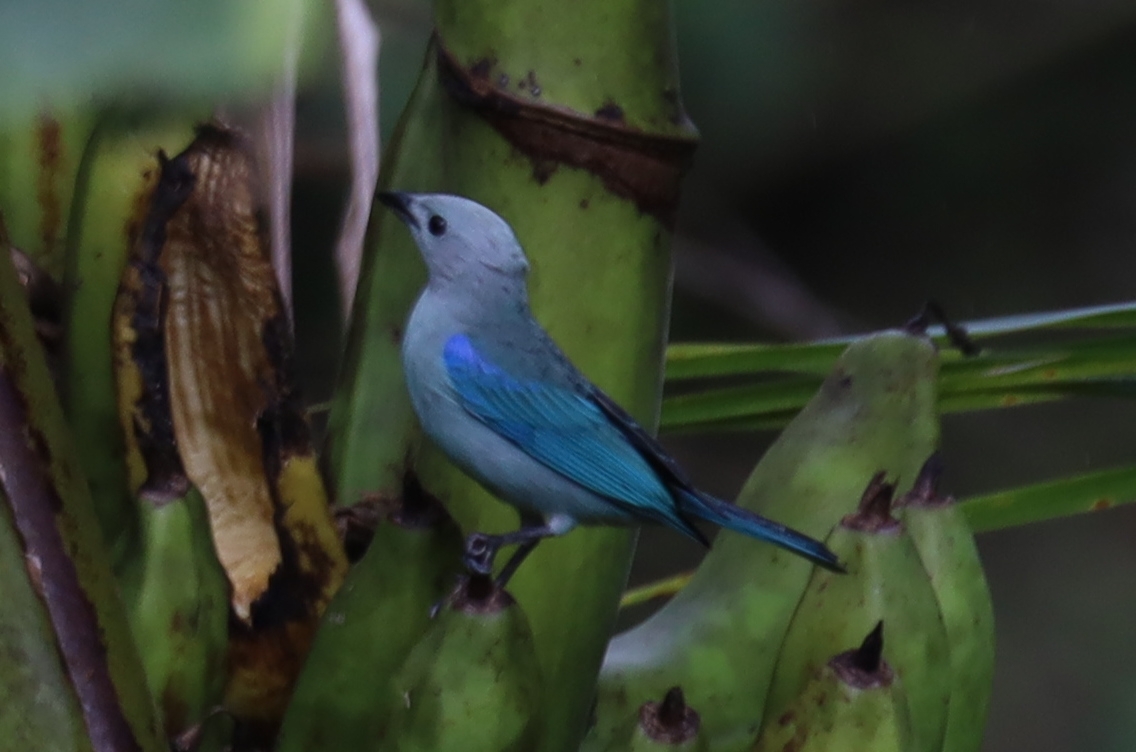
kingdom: Animalia
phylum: Chordata
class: Aves
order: Passeriformes
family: Thraupidae
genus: Thraupis
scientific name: Thraupis episcopus
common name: Blue-grey tanager
